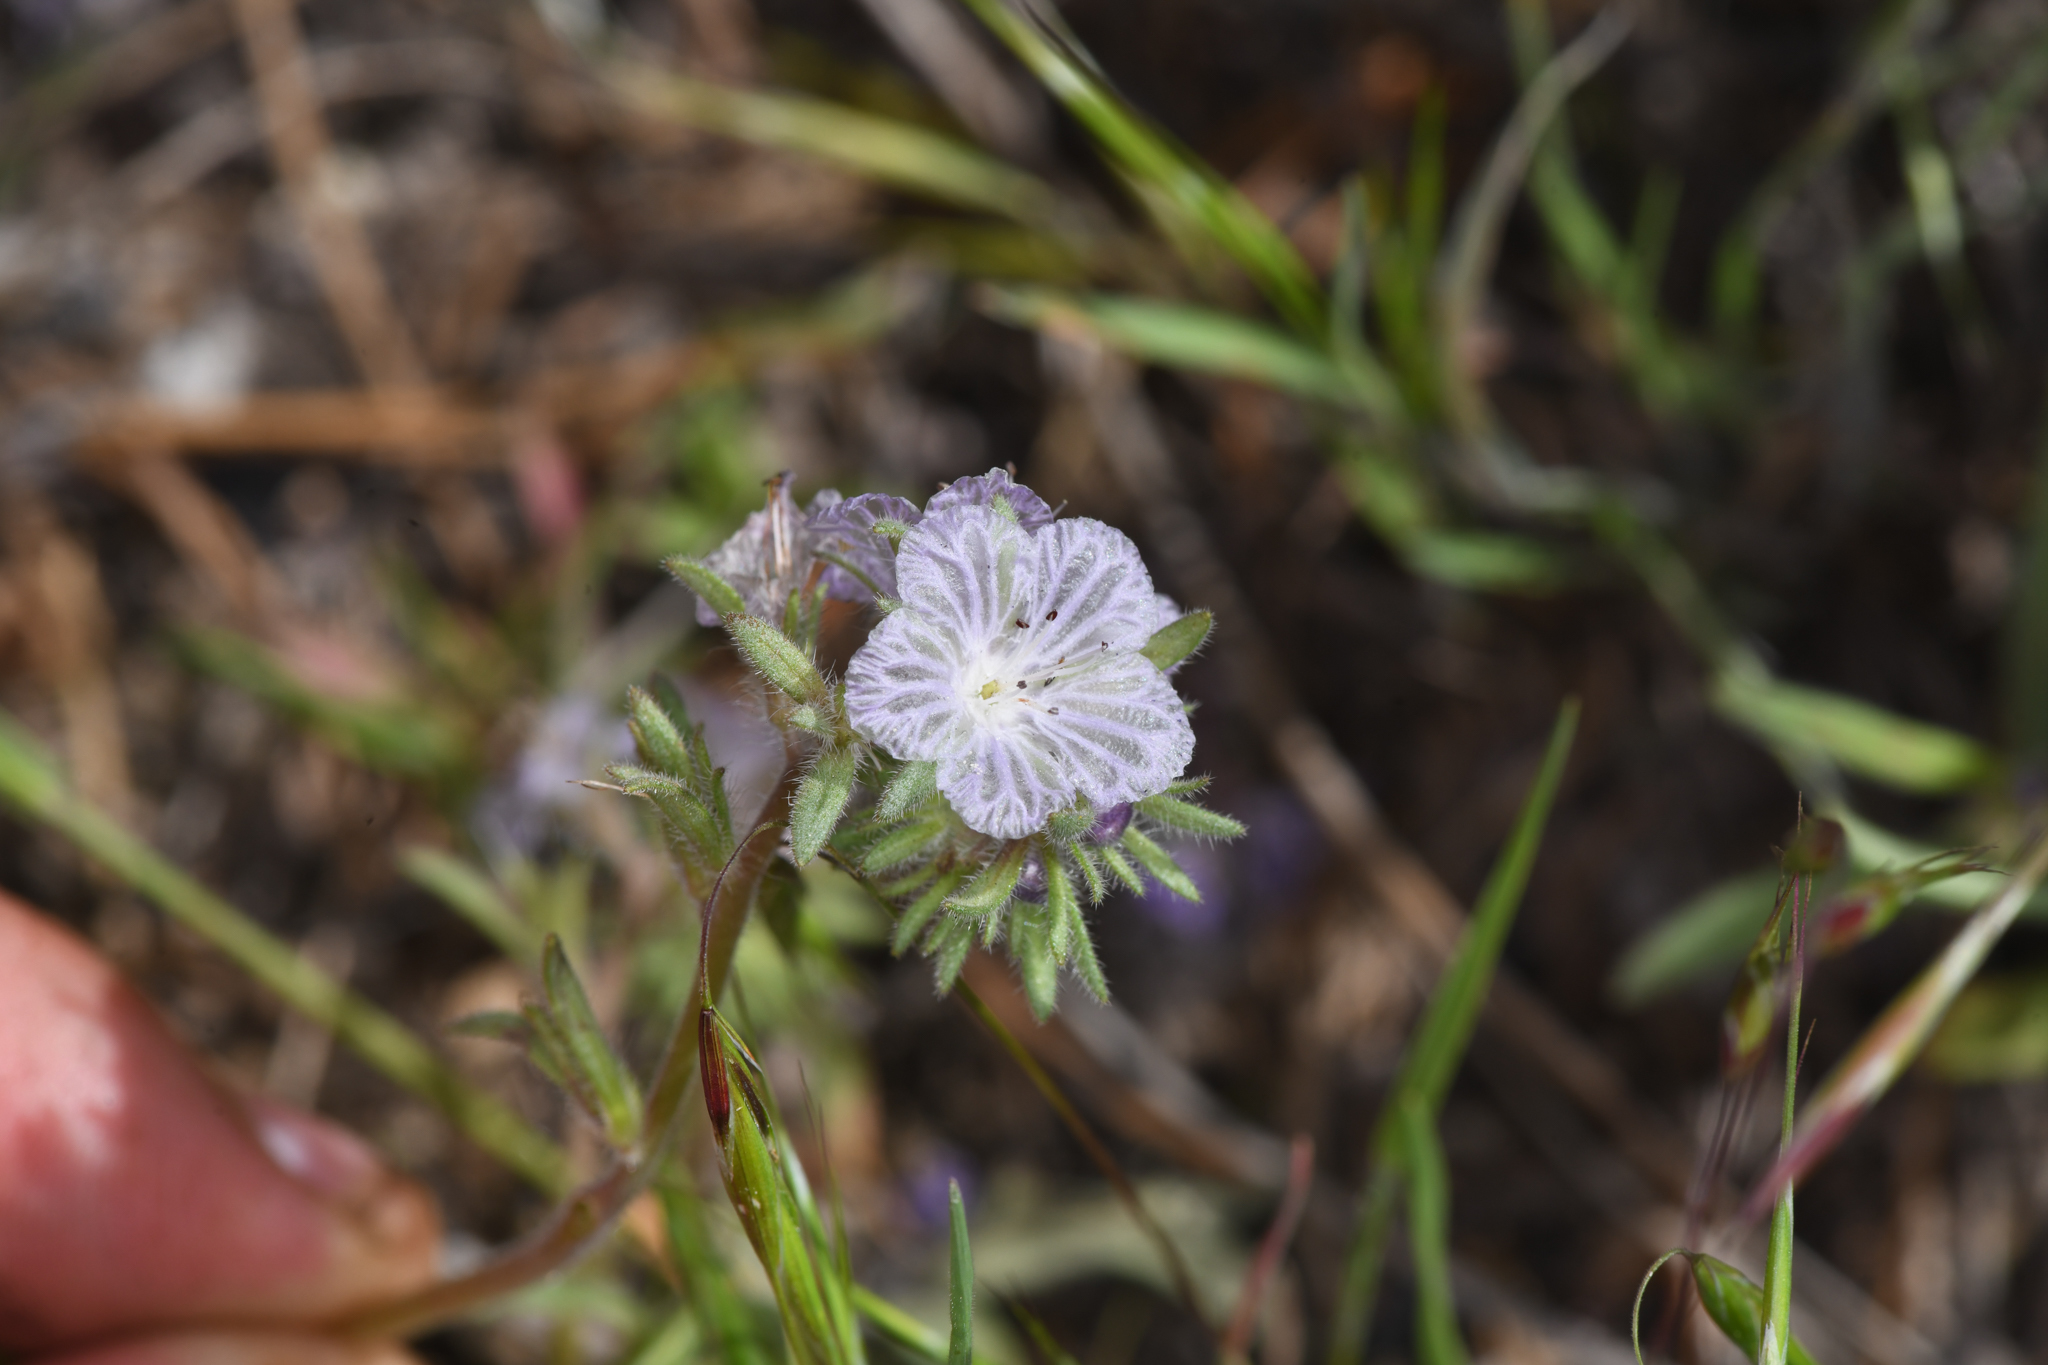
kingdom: Plantae
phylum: Tracheophyta
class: Magnoliopsida
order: Boraginales
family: Hydrophyllaceae
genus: Phacelia
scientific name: Phacelia exilis
